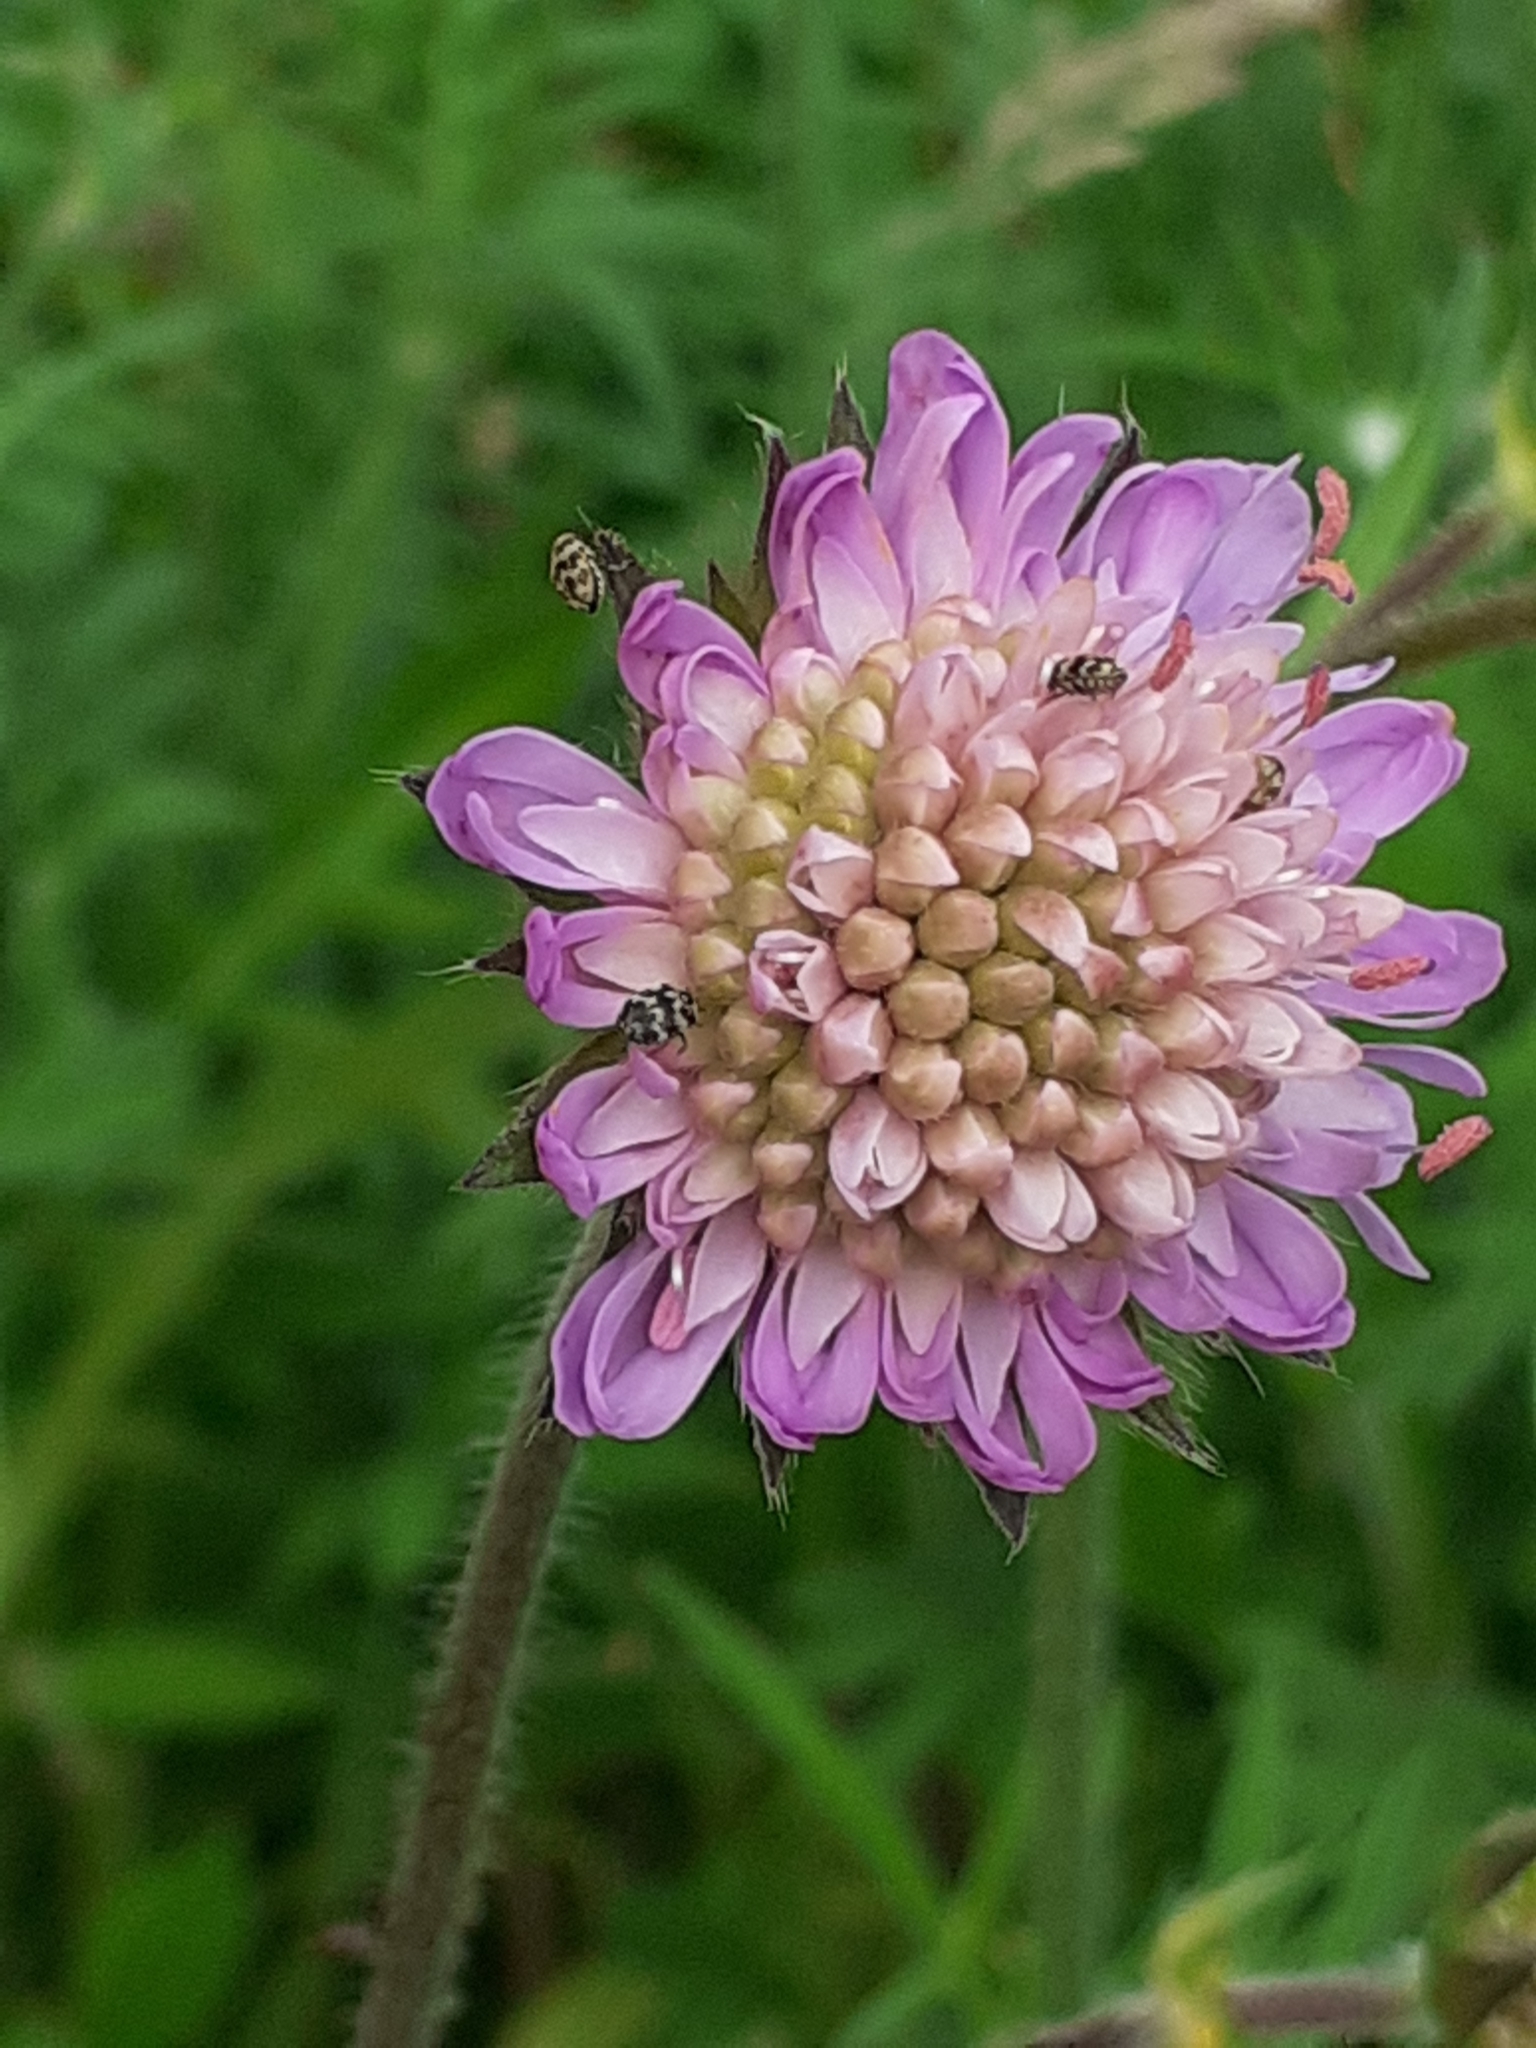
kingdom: Plantae
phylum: Tracheophyta
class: Magnoliopsida
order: Dipsacales
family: Caprifoliaceae
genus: Knautia
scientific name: Knautia arvensis
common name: Field scabiosa
